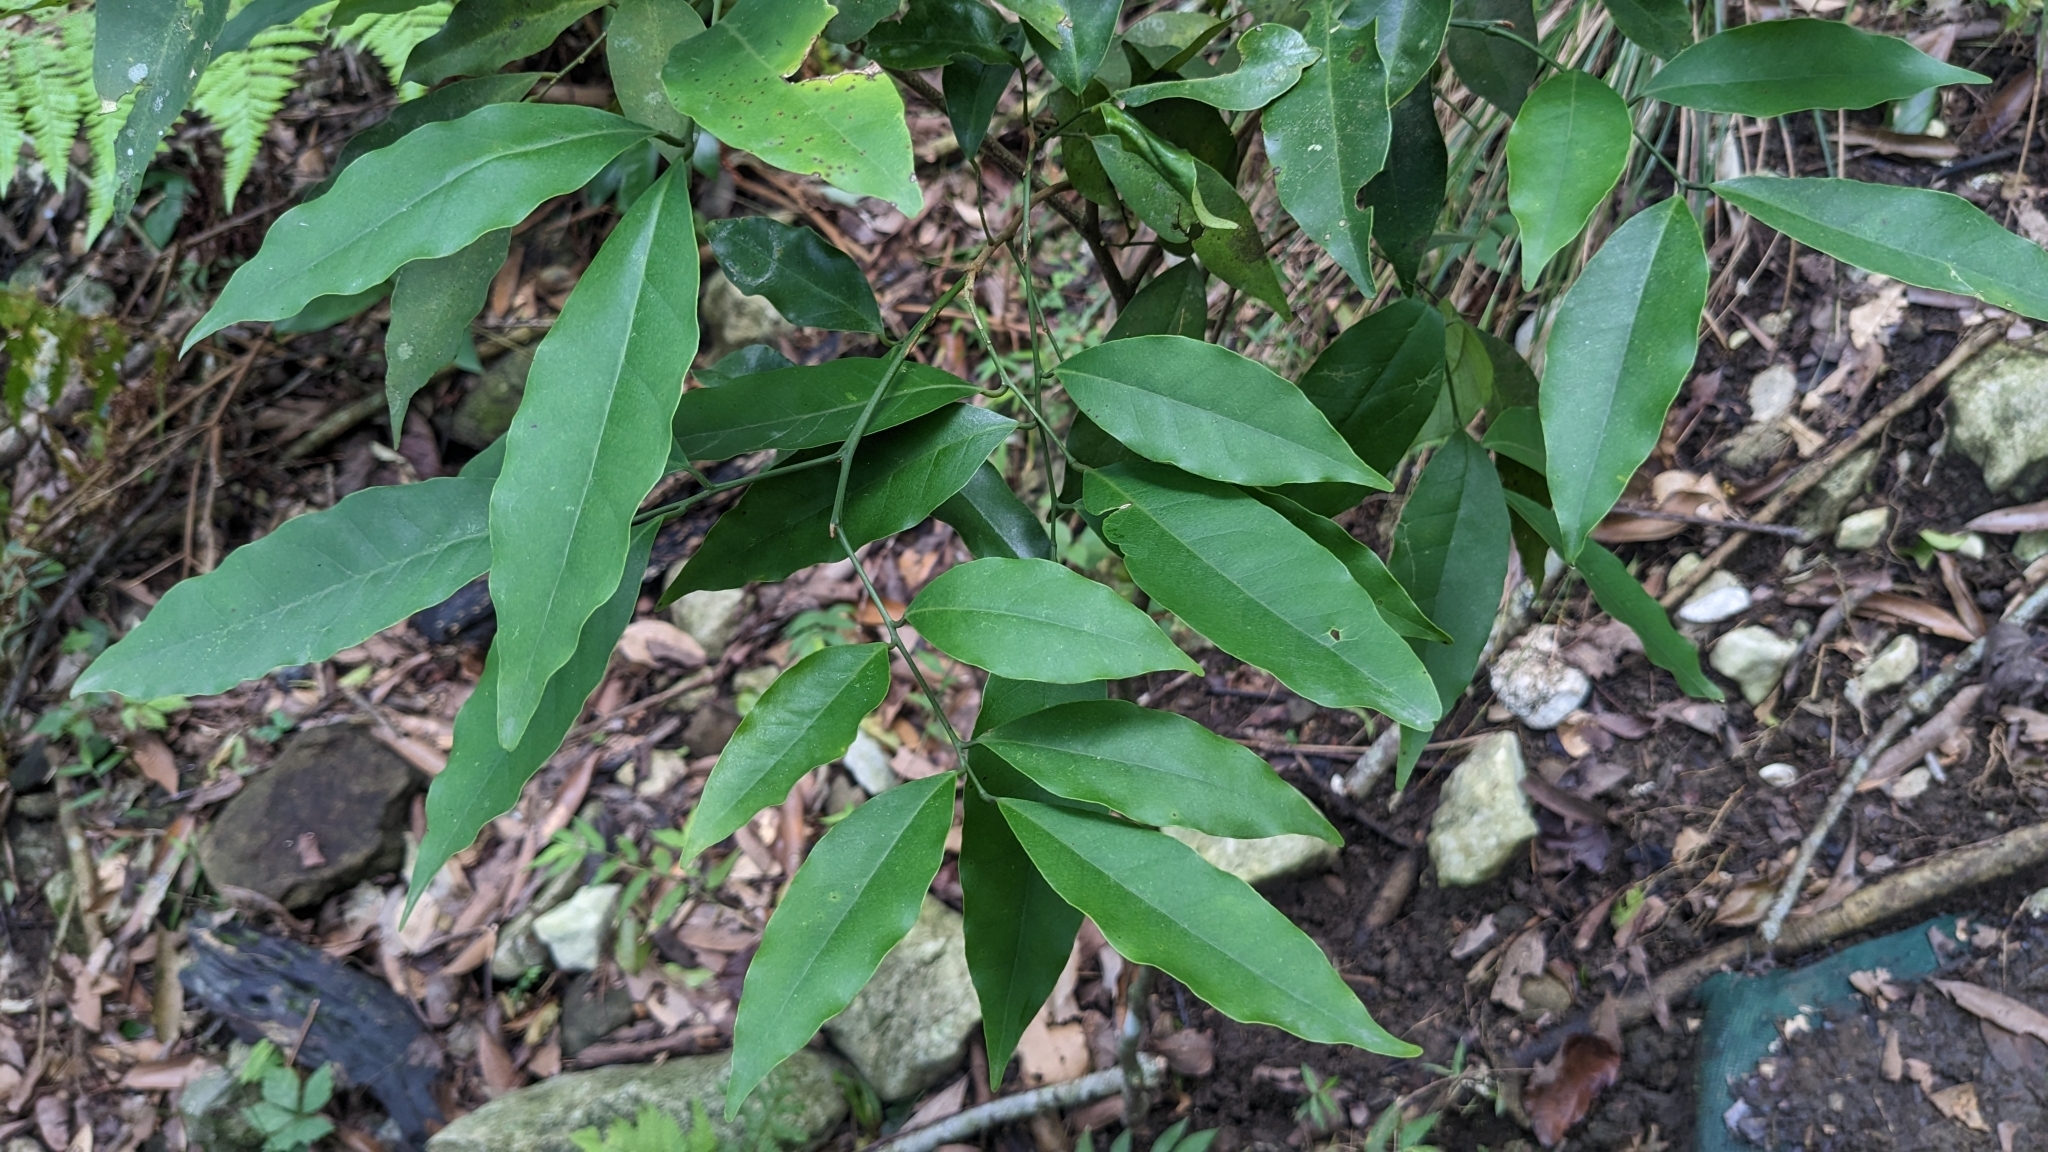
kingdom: Plantae
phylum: Tracheophyta
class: Magnoliopsida
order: Sapindales
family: Rutaceae
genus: Glycosmis
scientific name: Glycosmis parviflora
